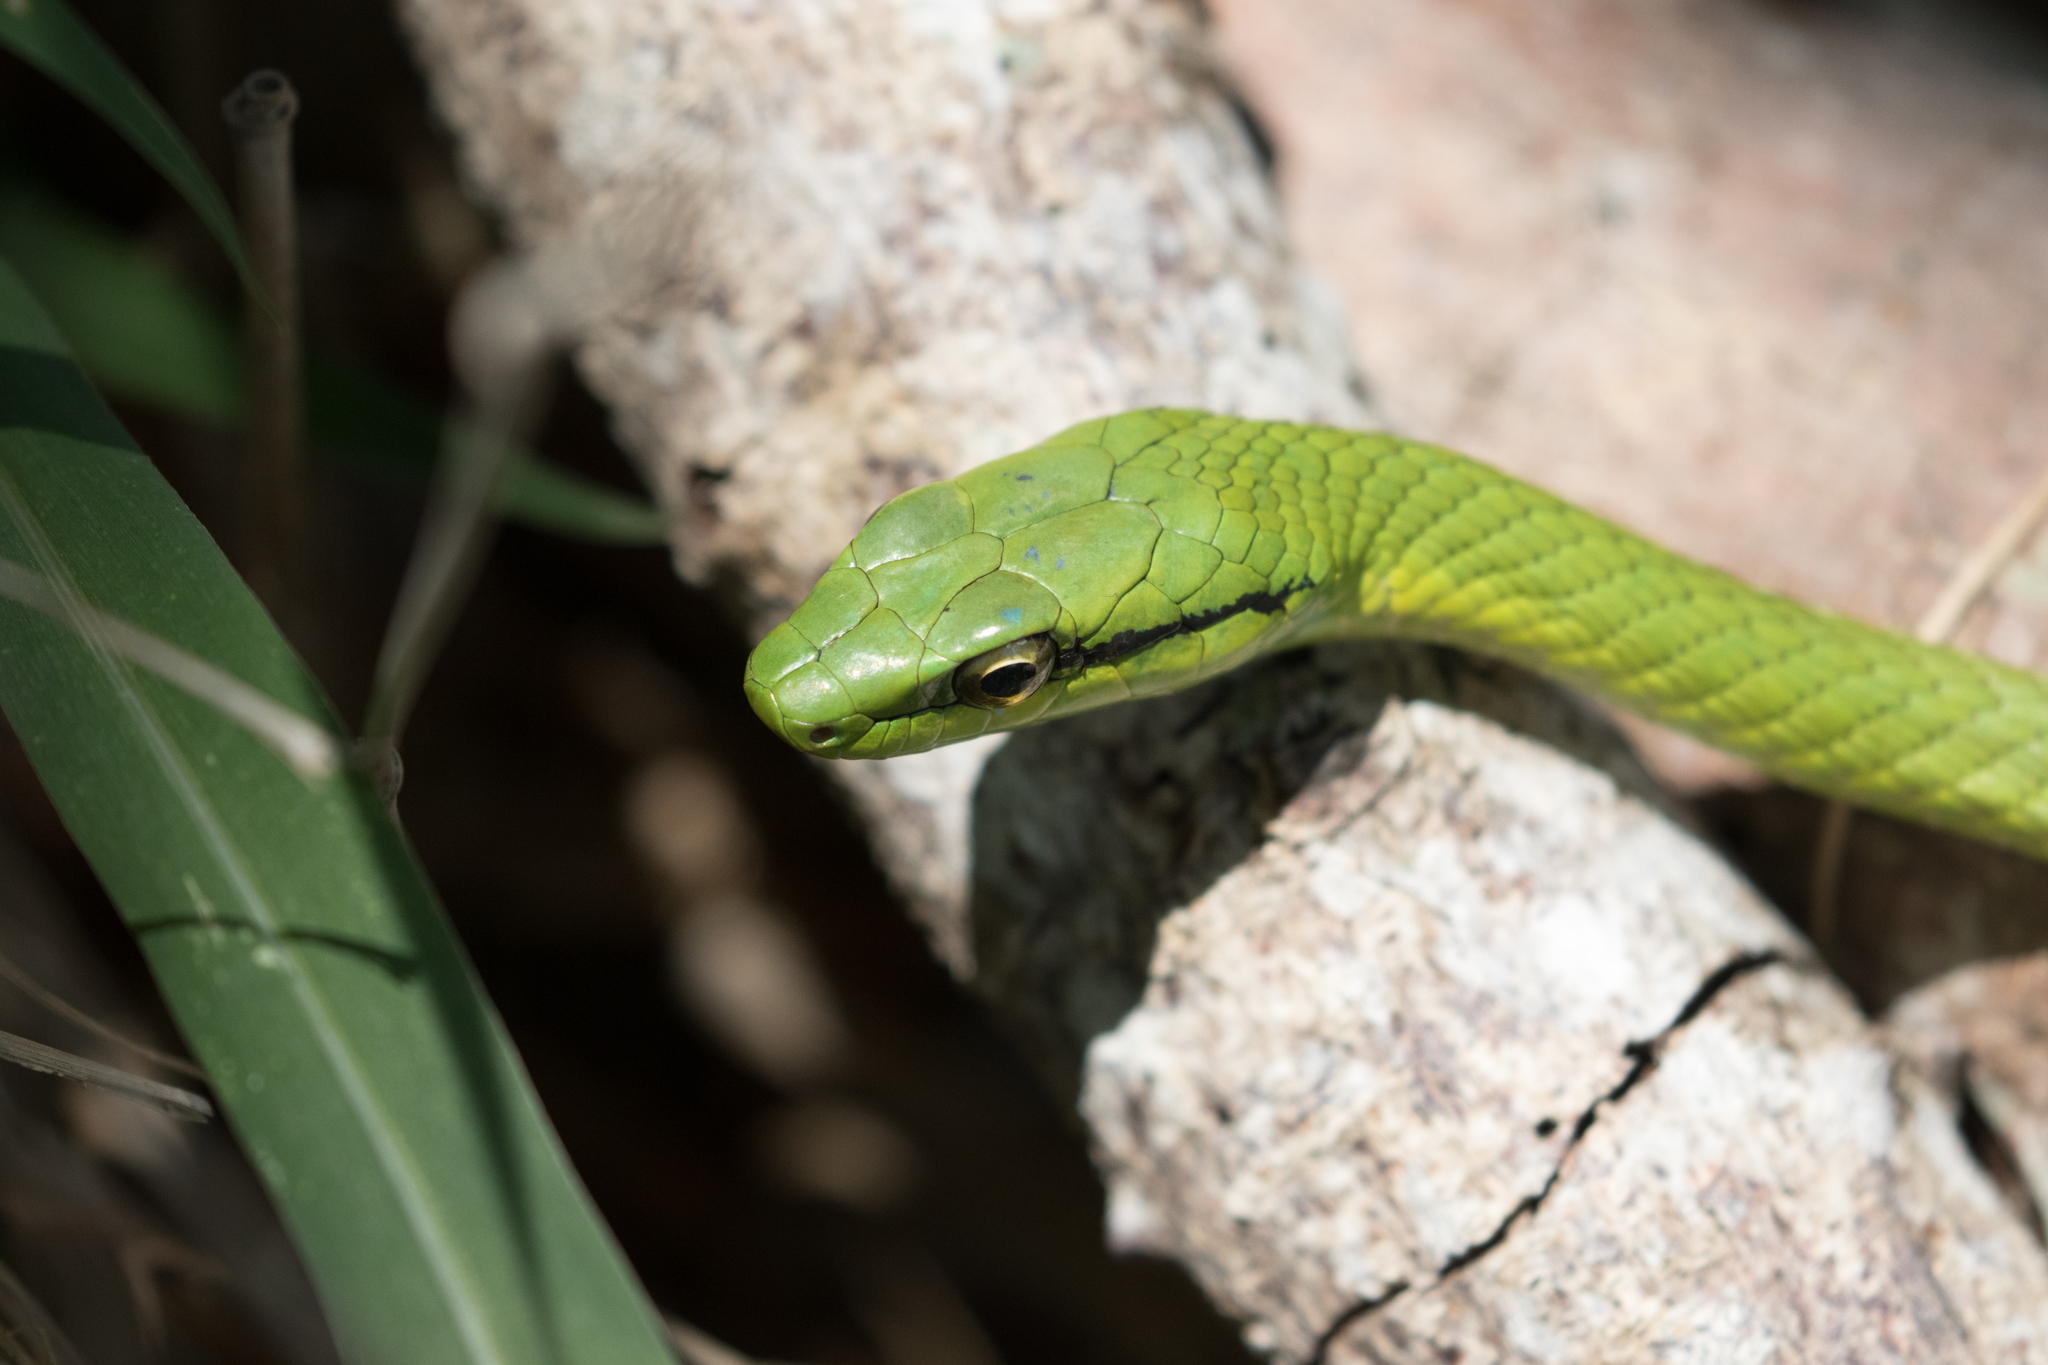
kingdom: Animalia
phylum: Chordata
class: Squamata
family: Colubridae
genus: Leptophis
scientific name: Leptophis ahaetulla
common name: Parrot snake
